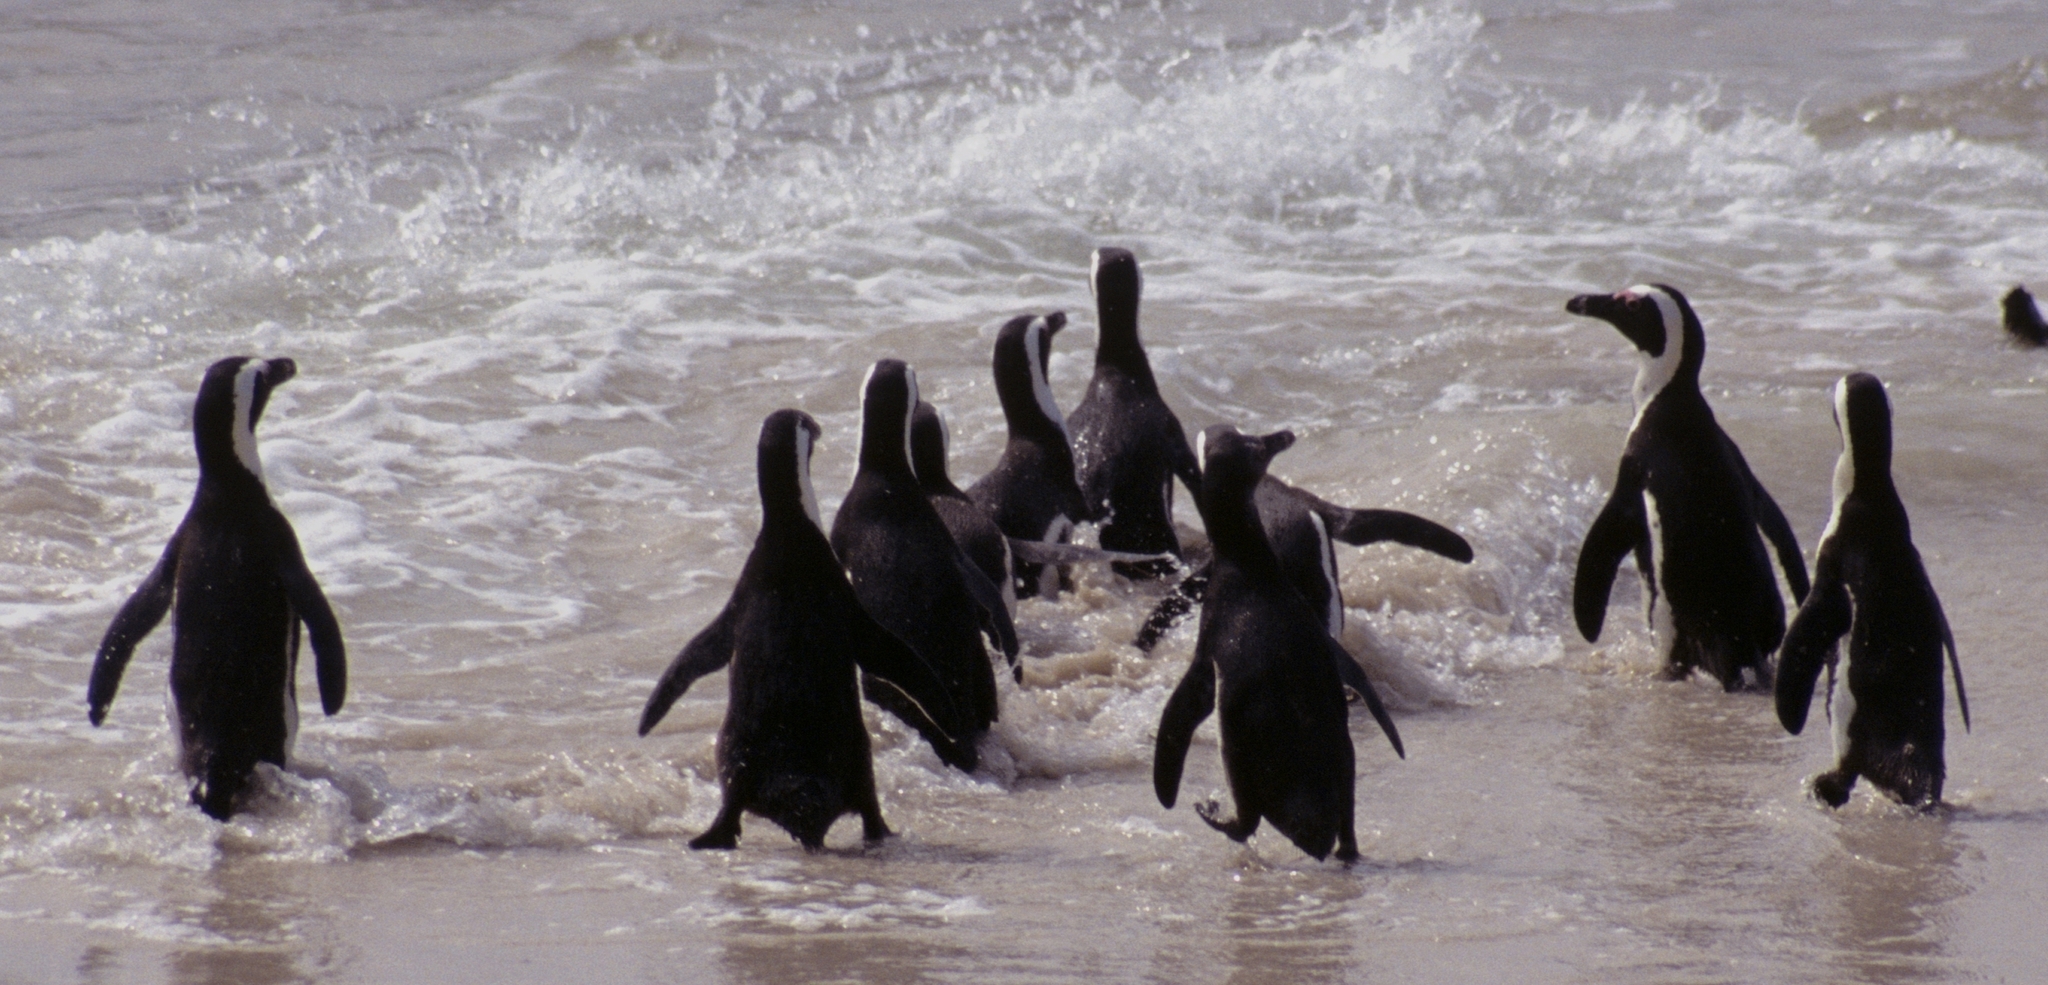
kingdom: Animalia
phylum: Chordata
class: Aves
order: Sphenisciformes
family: Spheniscidae
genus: Spheniscus
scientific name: Spheniscus demersus
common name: African penguin
